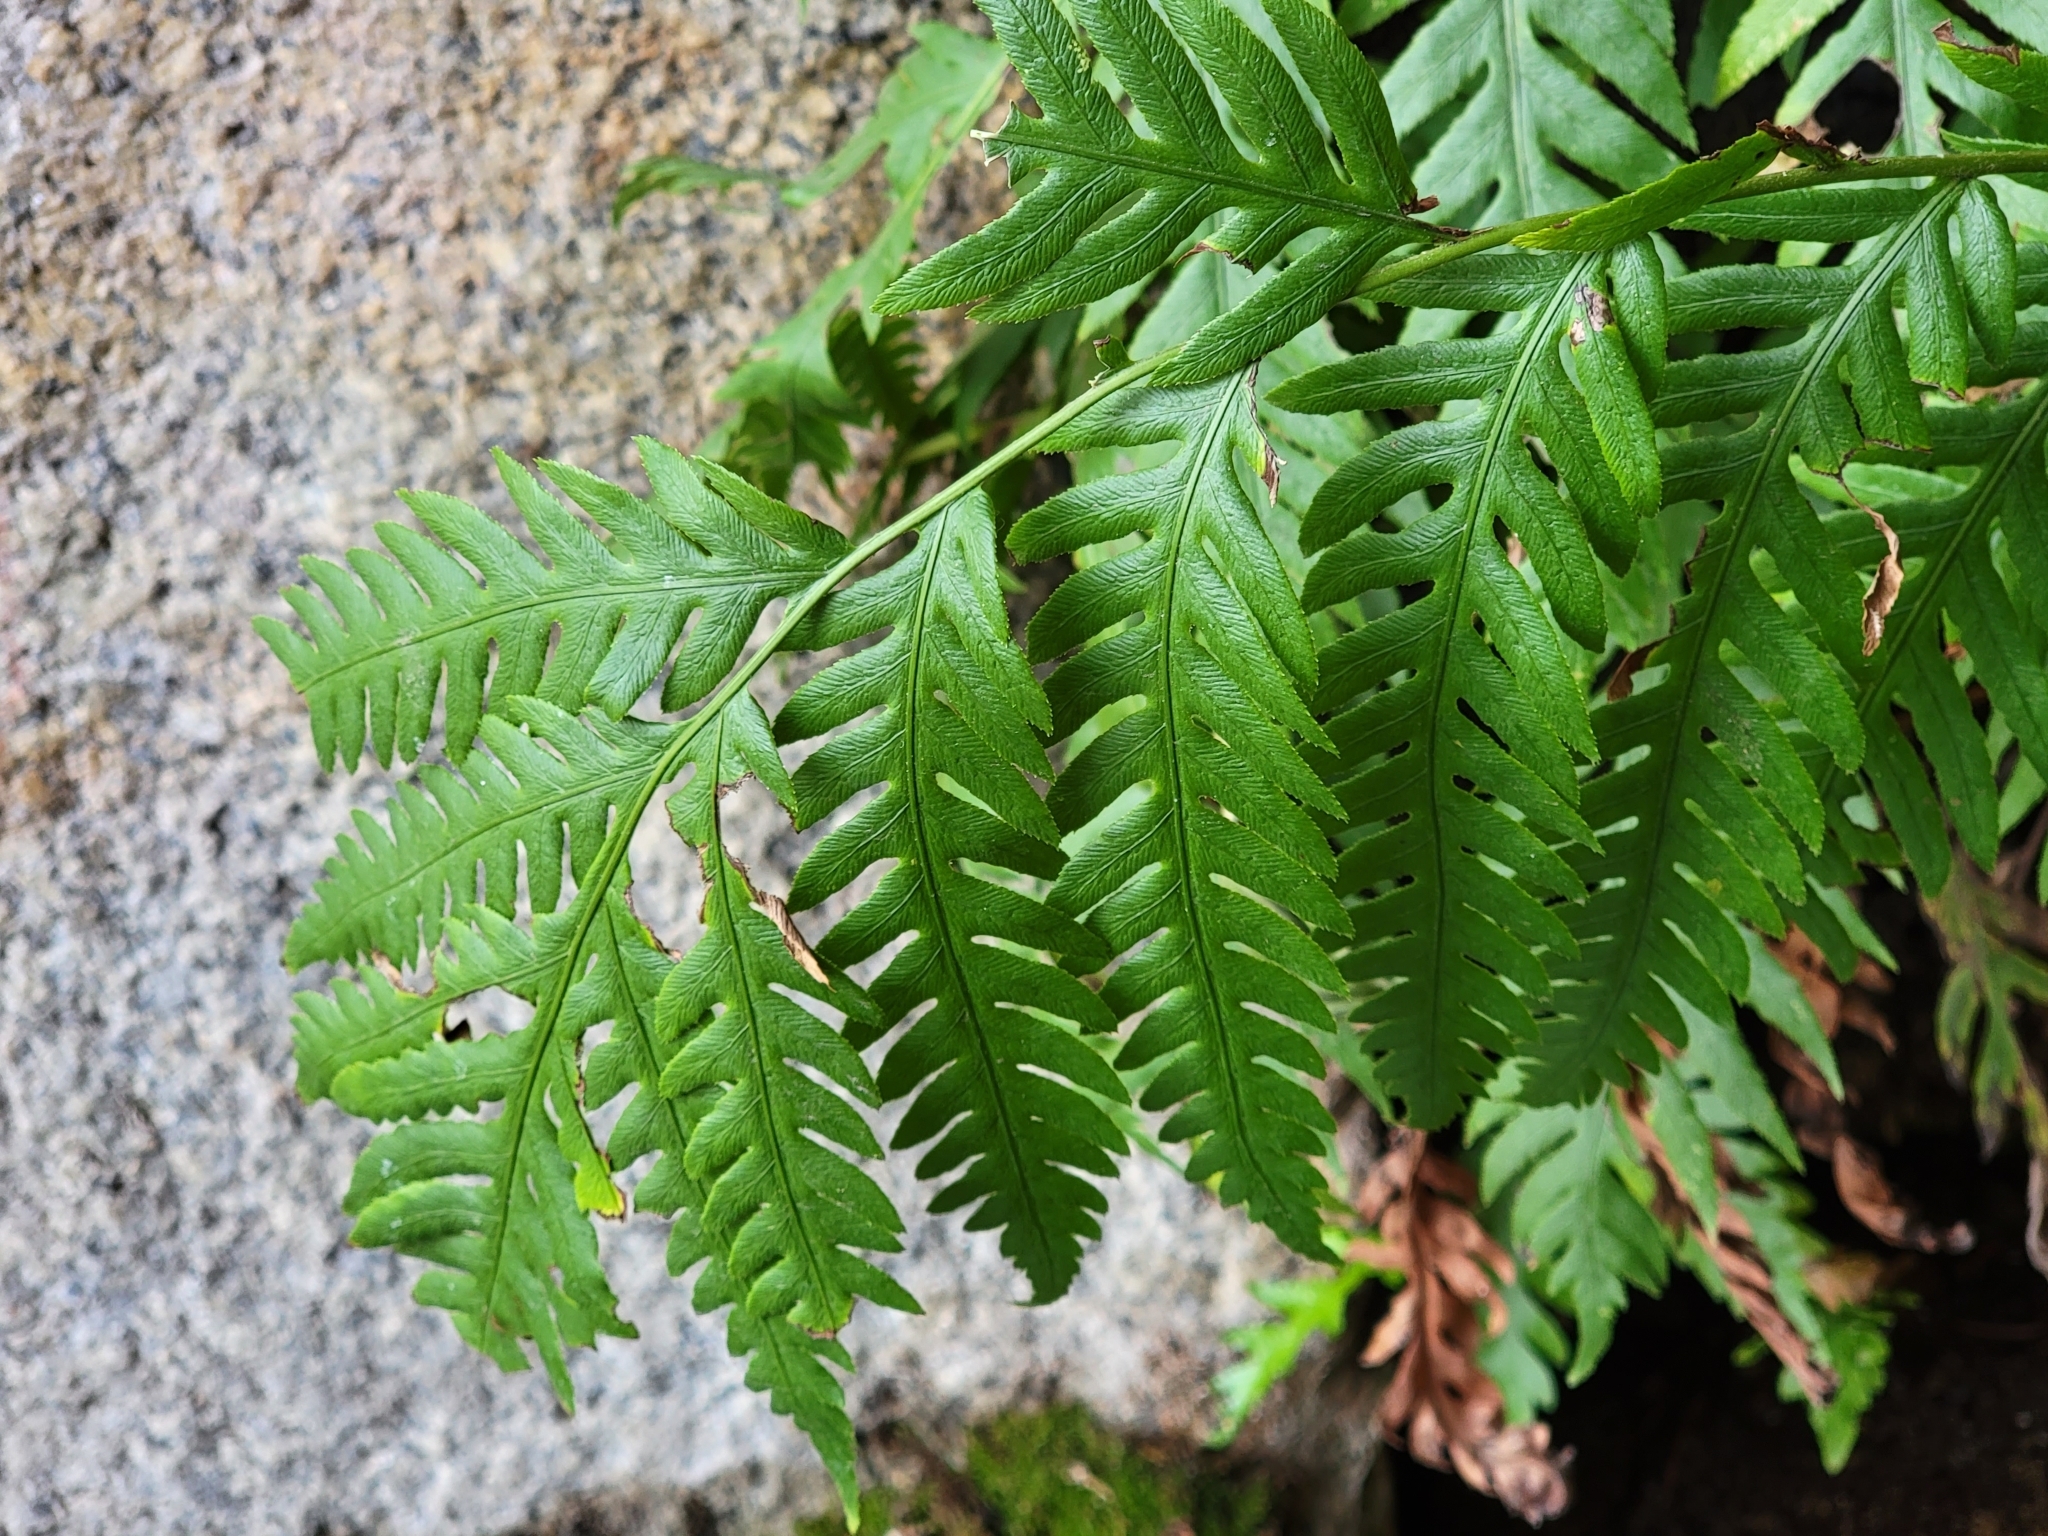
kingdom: Plantae
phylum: Tracheophyta
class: Polypodiopsida
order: Polypodiales
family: Blechnaceae
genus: Woodwardia
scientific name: Woodwardia fimbriata
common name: Giant chain fern
